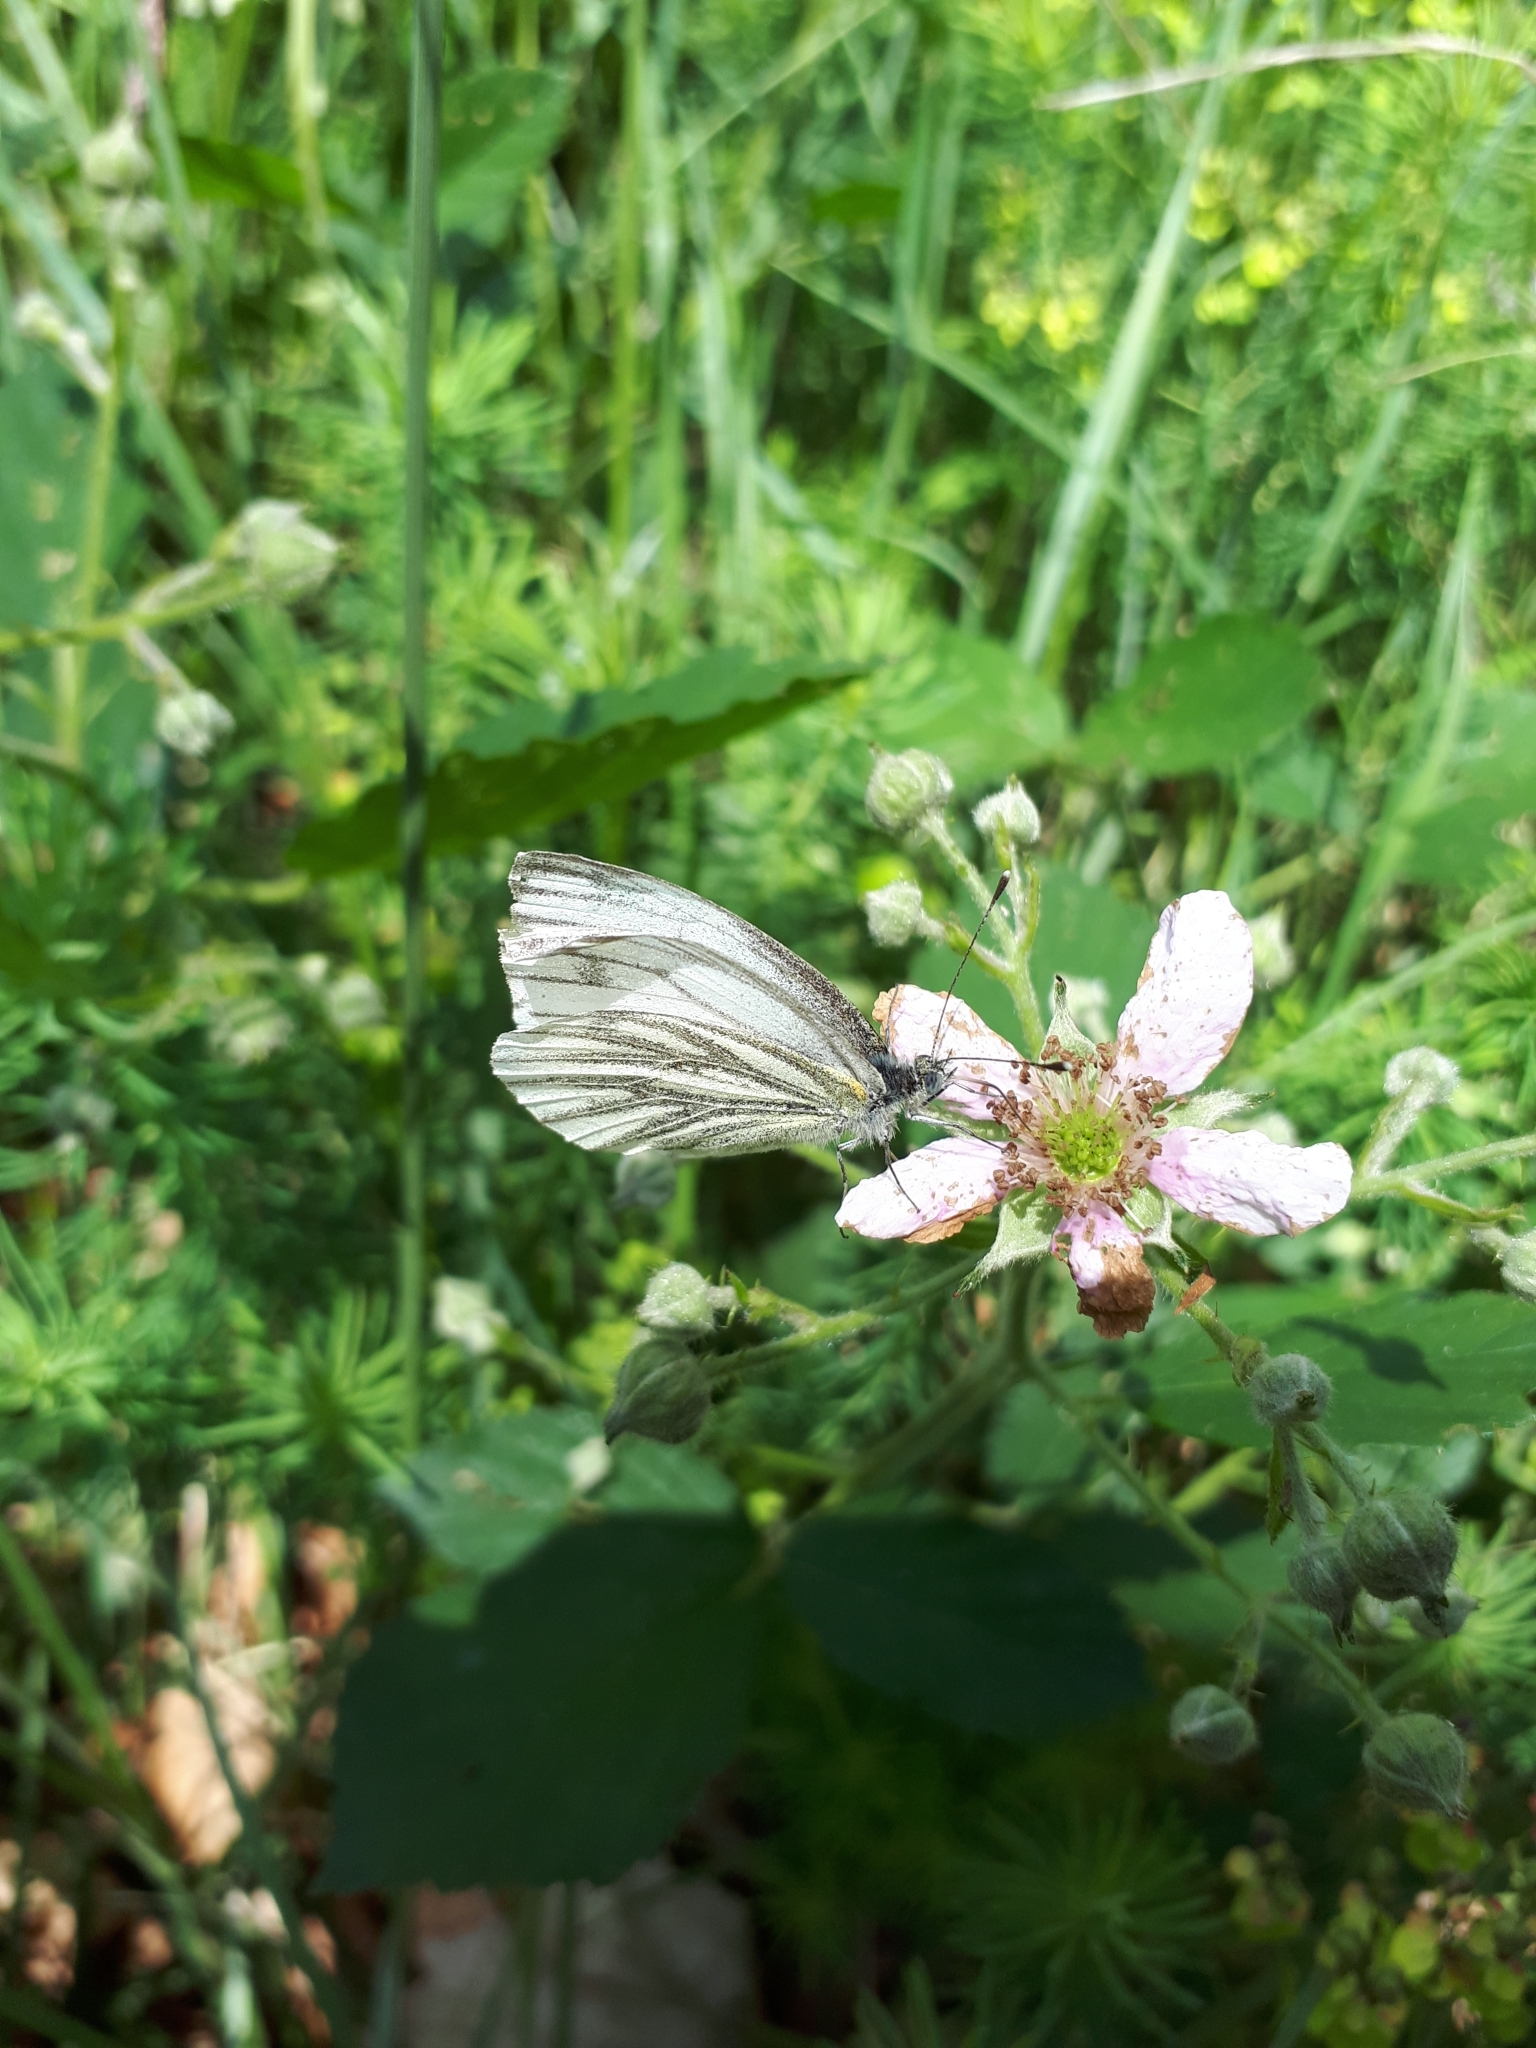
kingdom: Animalia
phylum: Arthropoda
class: Insecta
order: Lepidoptera
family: Pieridae
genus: Pieris
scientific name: Pieris napi
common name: Green-veined white
